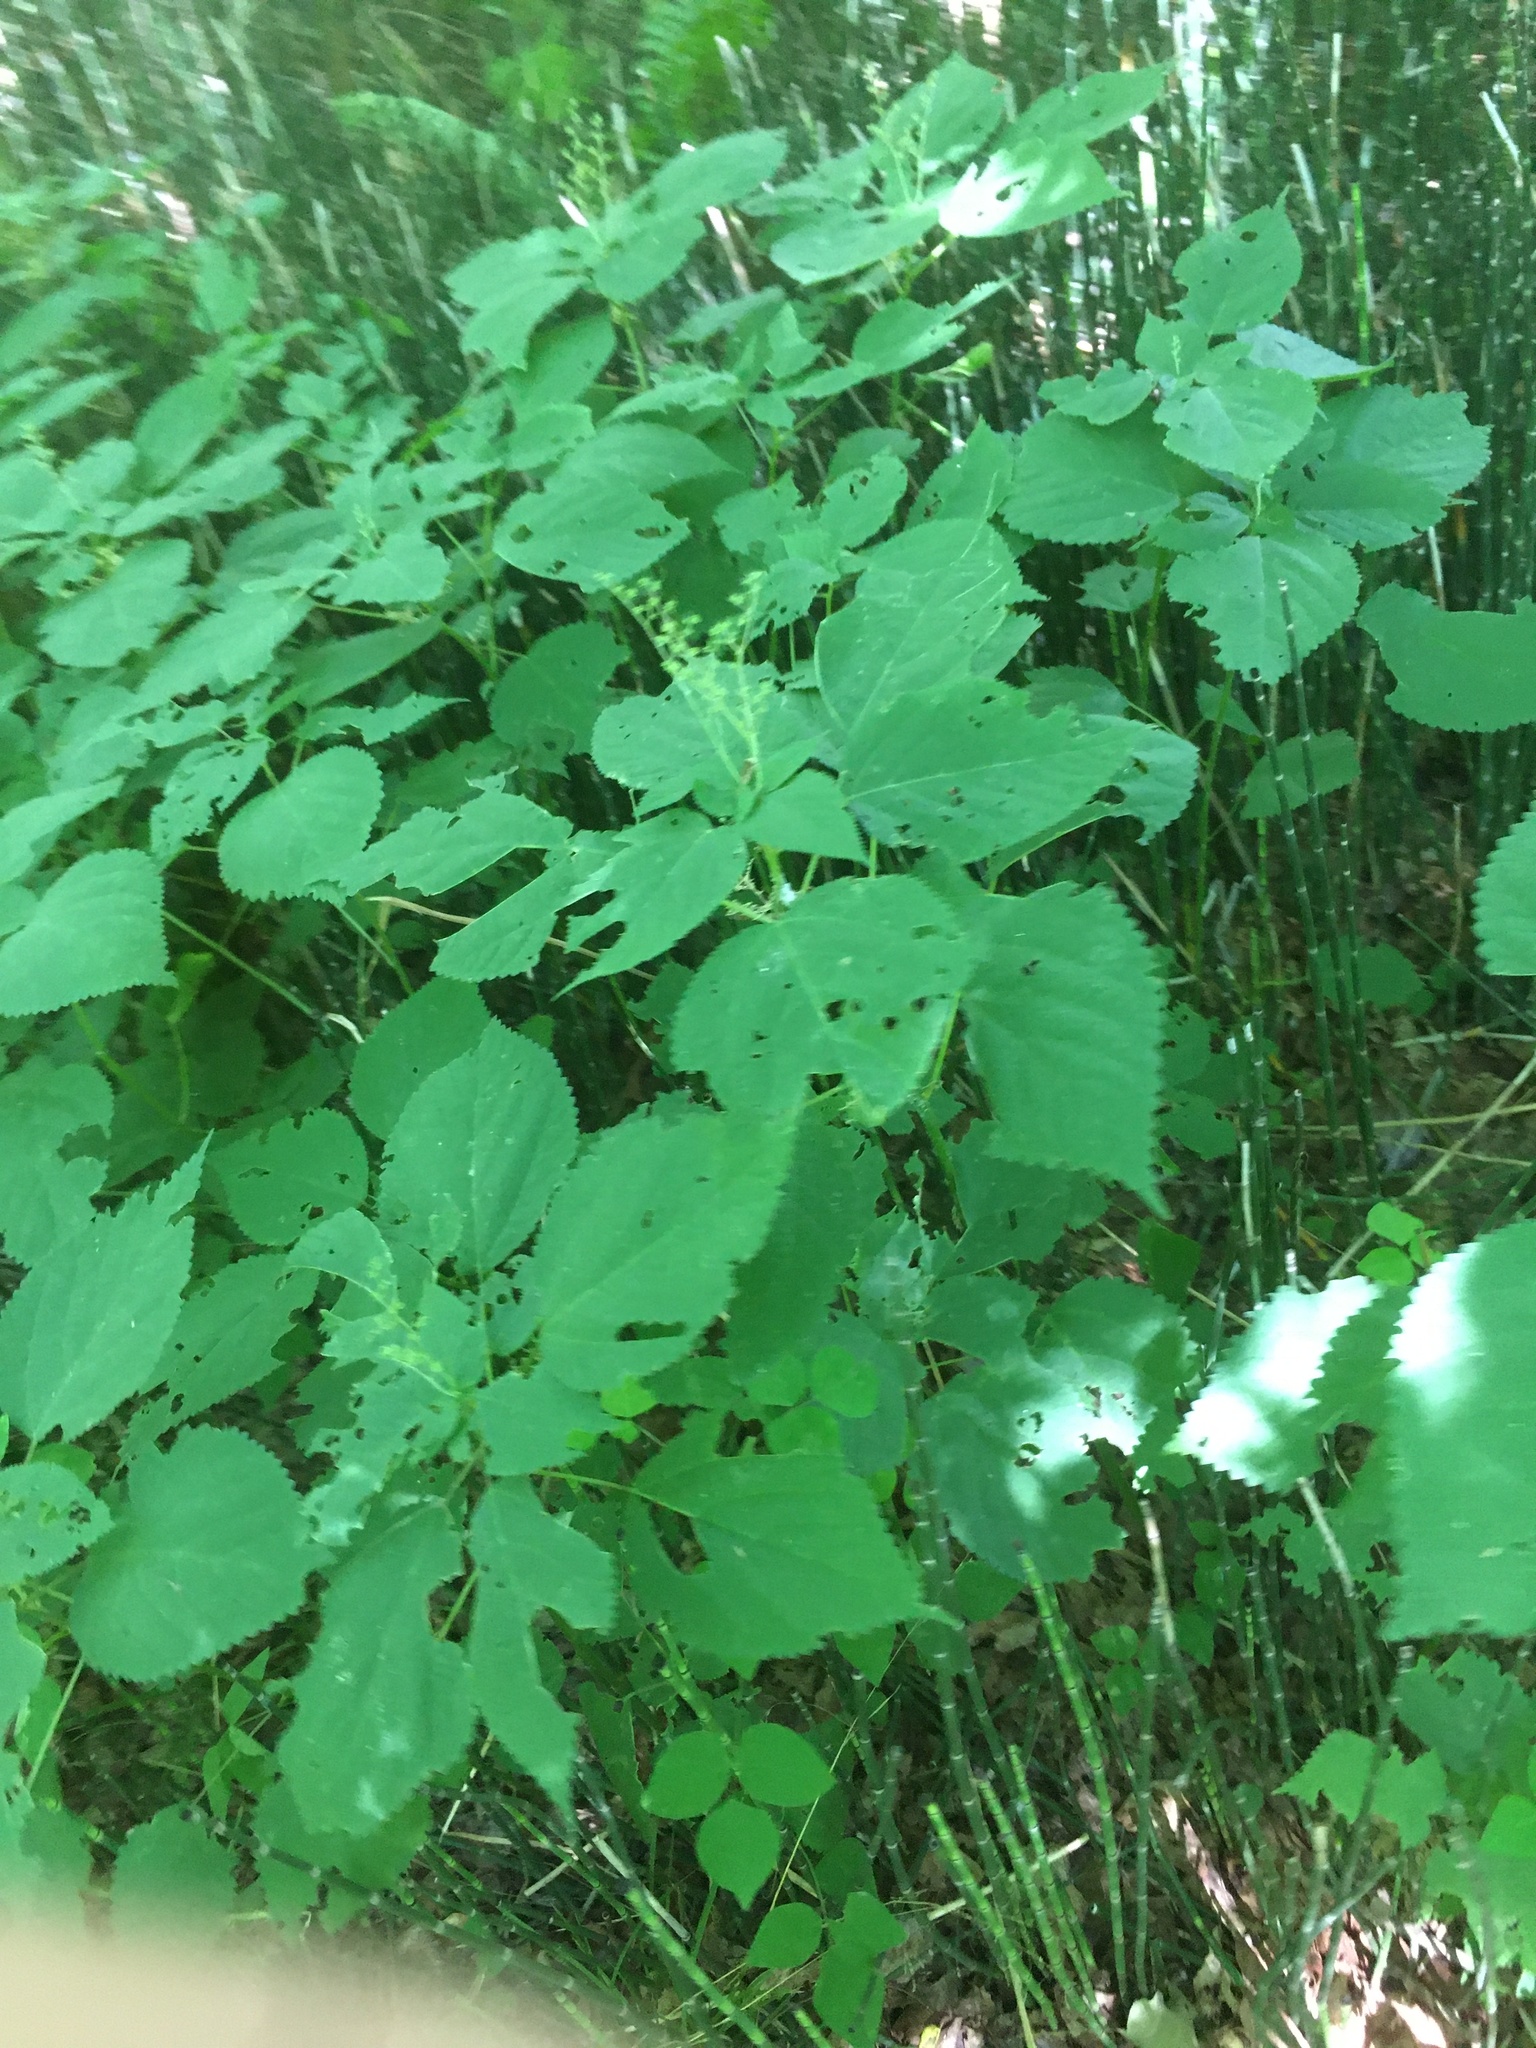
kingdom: Plantae
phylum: Tracheophyta
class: Magnoliopsida
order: Rosales
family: Urticaceae
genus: Laportea
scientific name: Laportea canadensis
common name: Canada nettle
